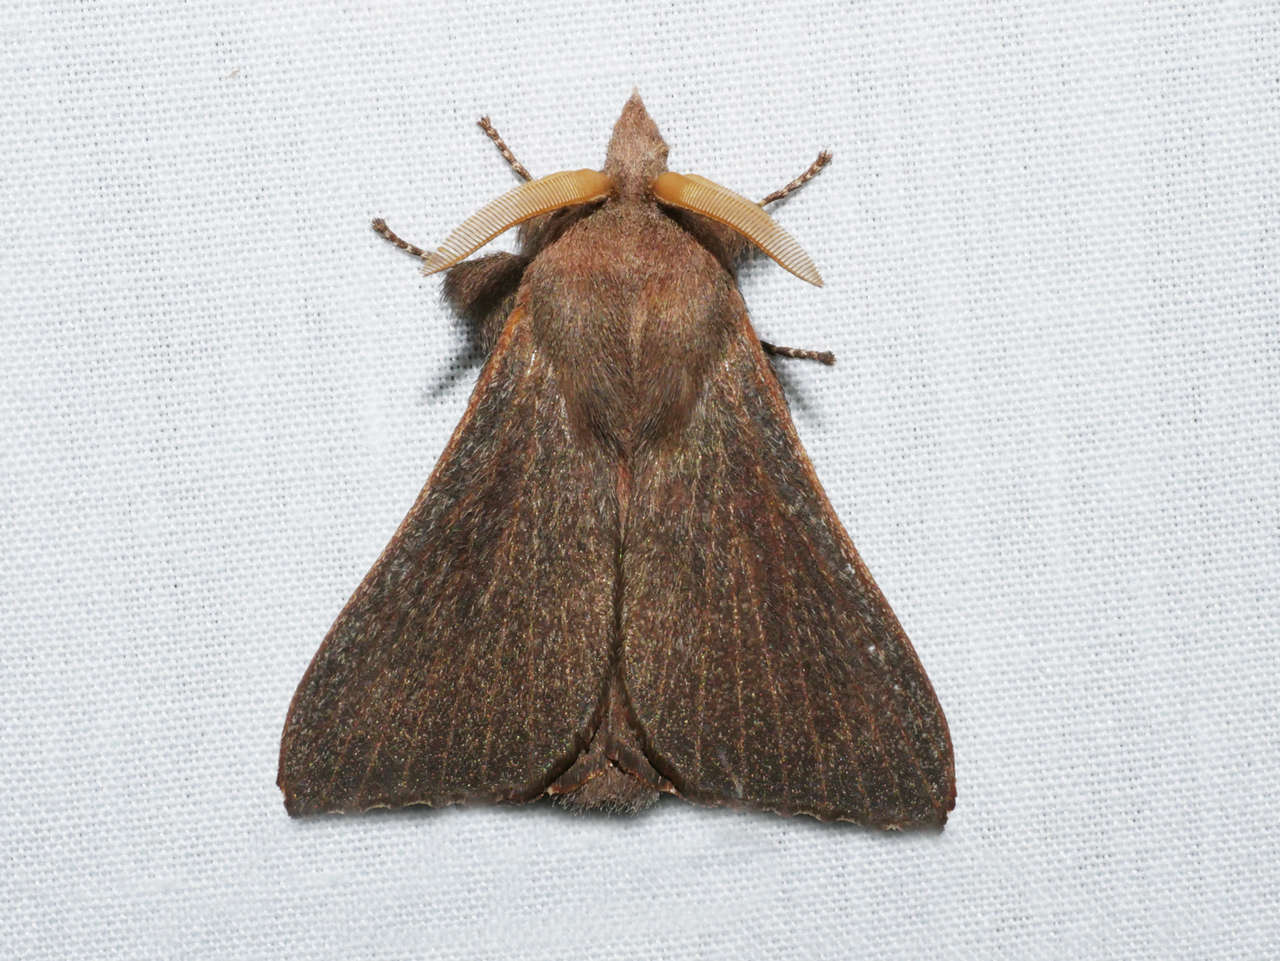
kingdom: Animalia
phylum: Arthropoda
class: Insecta
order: Lepidoptera
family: Lasiocampidae
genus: Pararguda
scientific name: Pararguda rufescens
